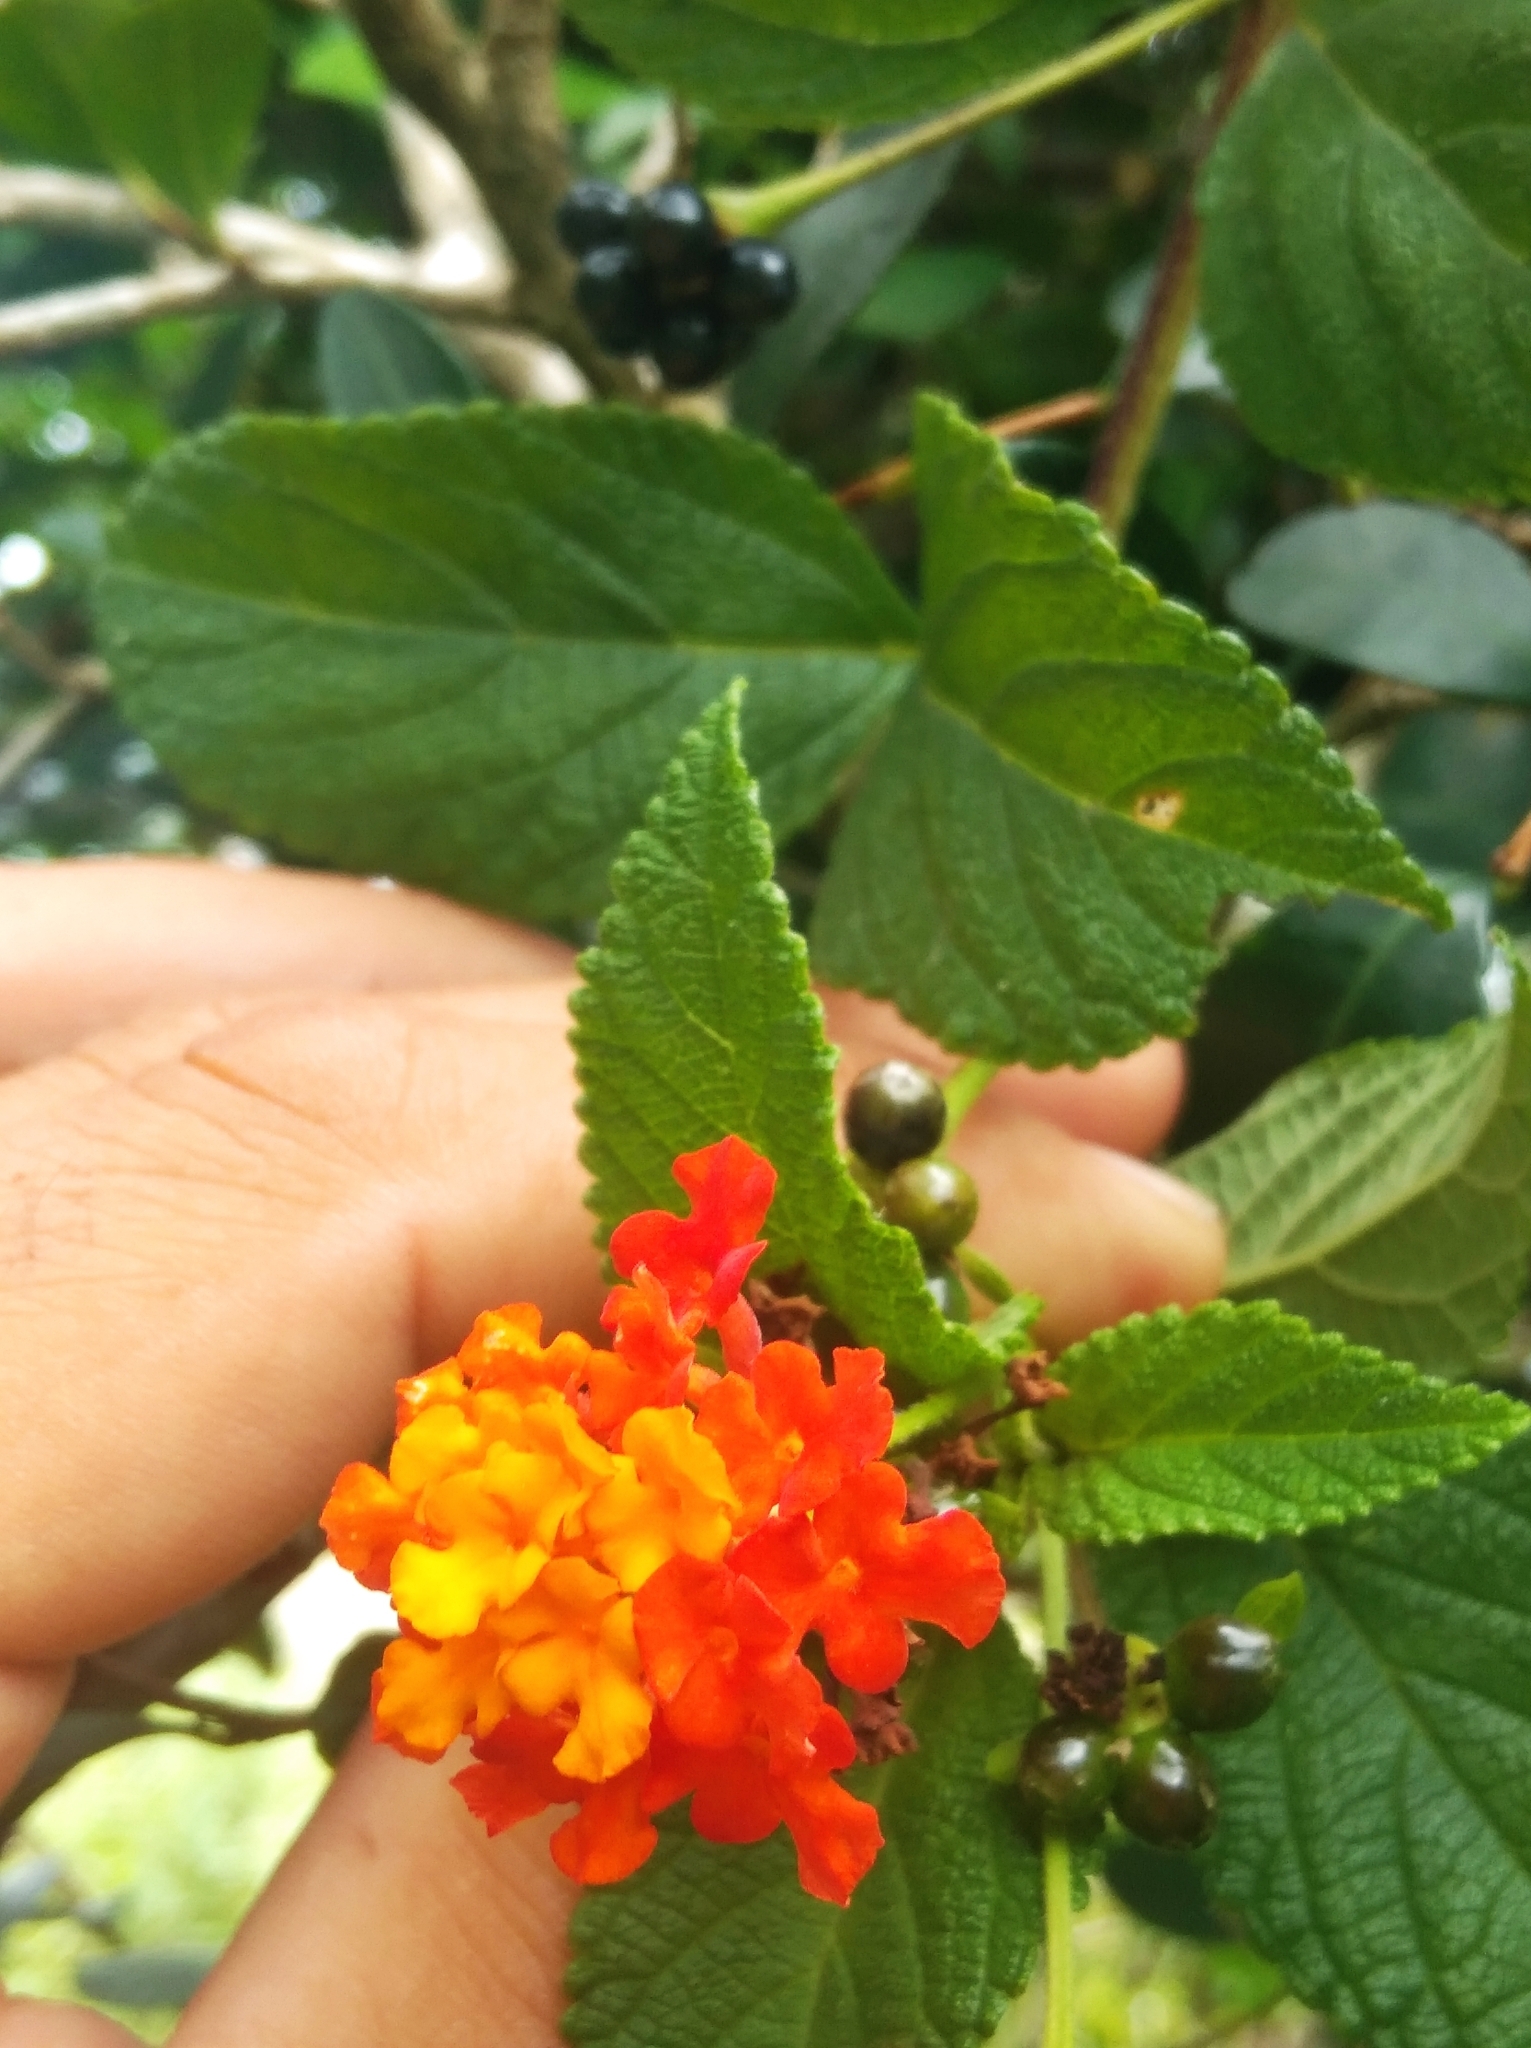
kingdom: Plantae
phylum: Tracheophyta
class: Magnoliopsida
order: Lamiales
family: Verbenaceae
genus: Lantana
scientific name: Lantana camara
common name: Lantana
